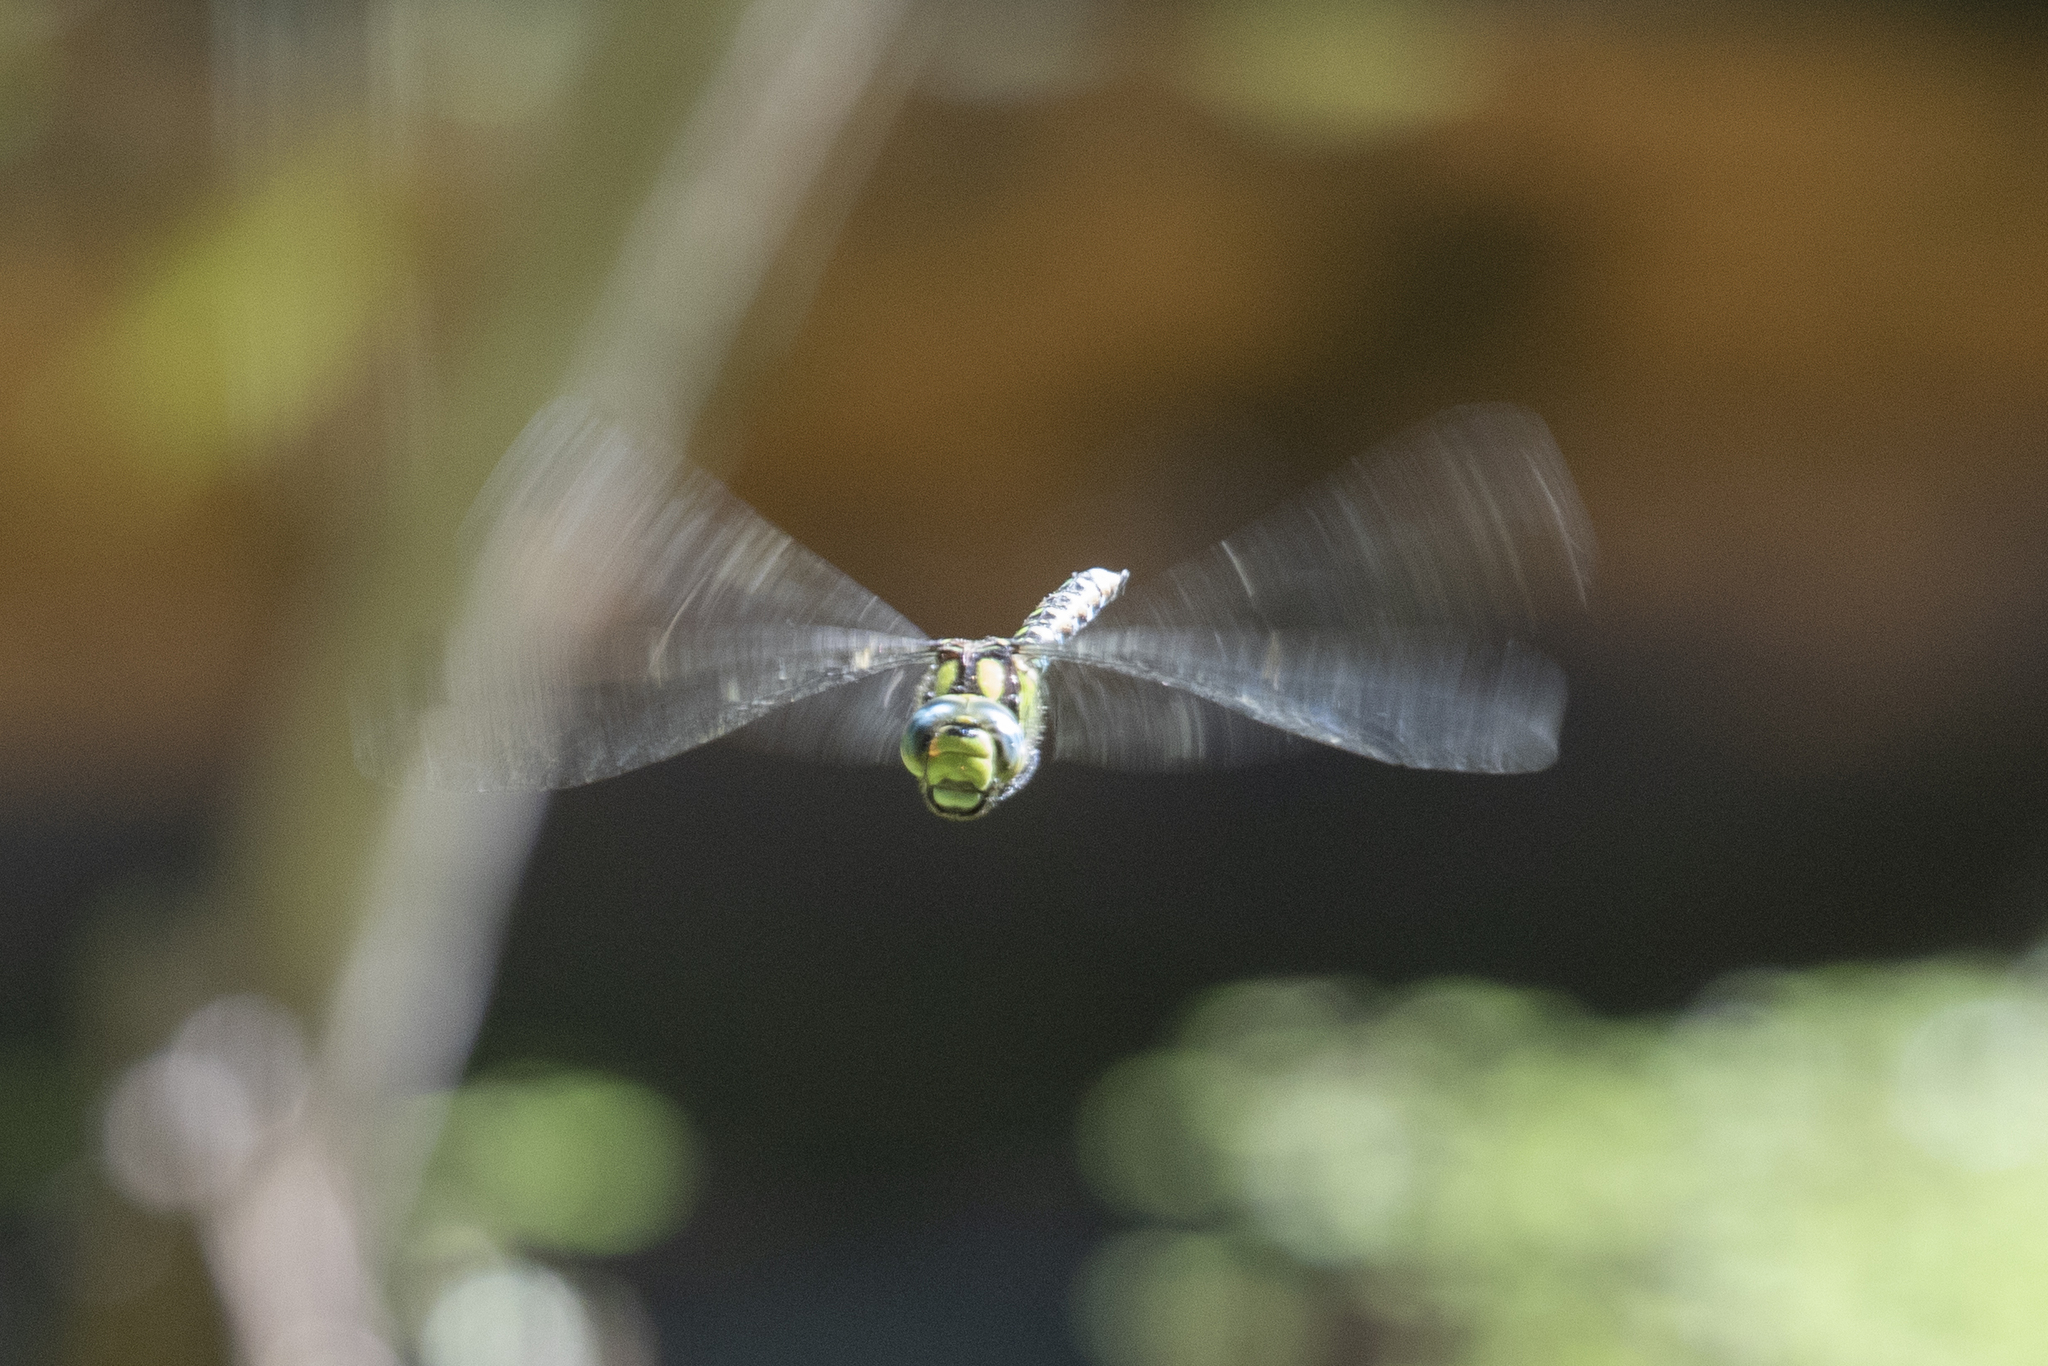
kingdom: Animalia
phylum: Arthropoda
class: Insecta
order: Odonata
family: Aeshnidae
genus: Aeshna
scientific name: Aeshna cyanea
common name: Southern hawker
